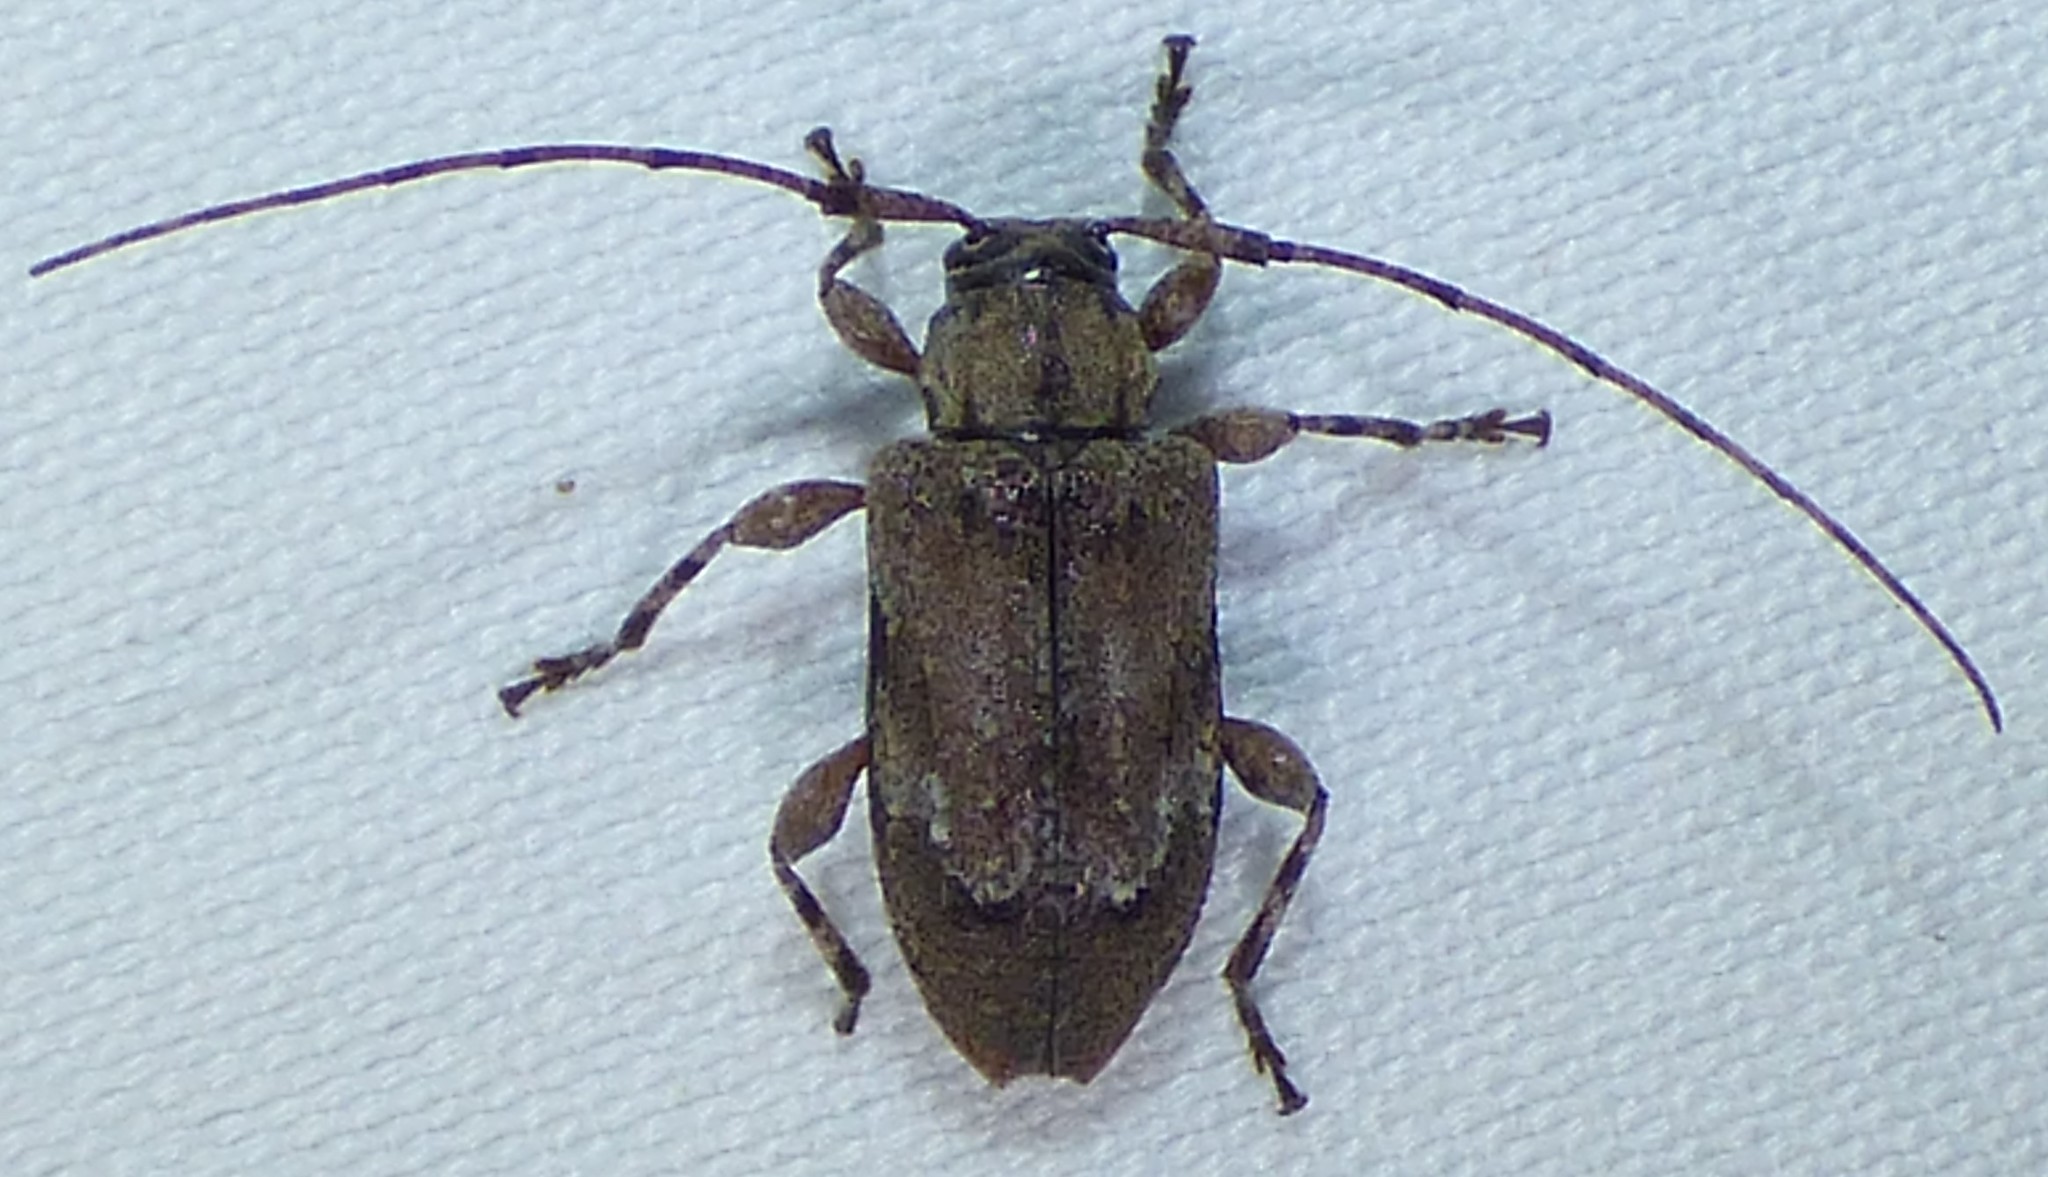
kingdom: Animalia
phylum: Arthropoda
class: Insecta
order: Coleoptera
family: Cerambycidae
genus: Astylopsis
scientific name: Astylopsis arcuata
